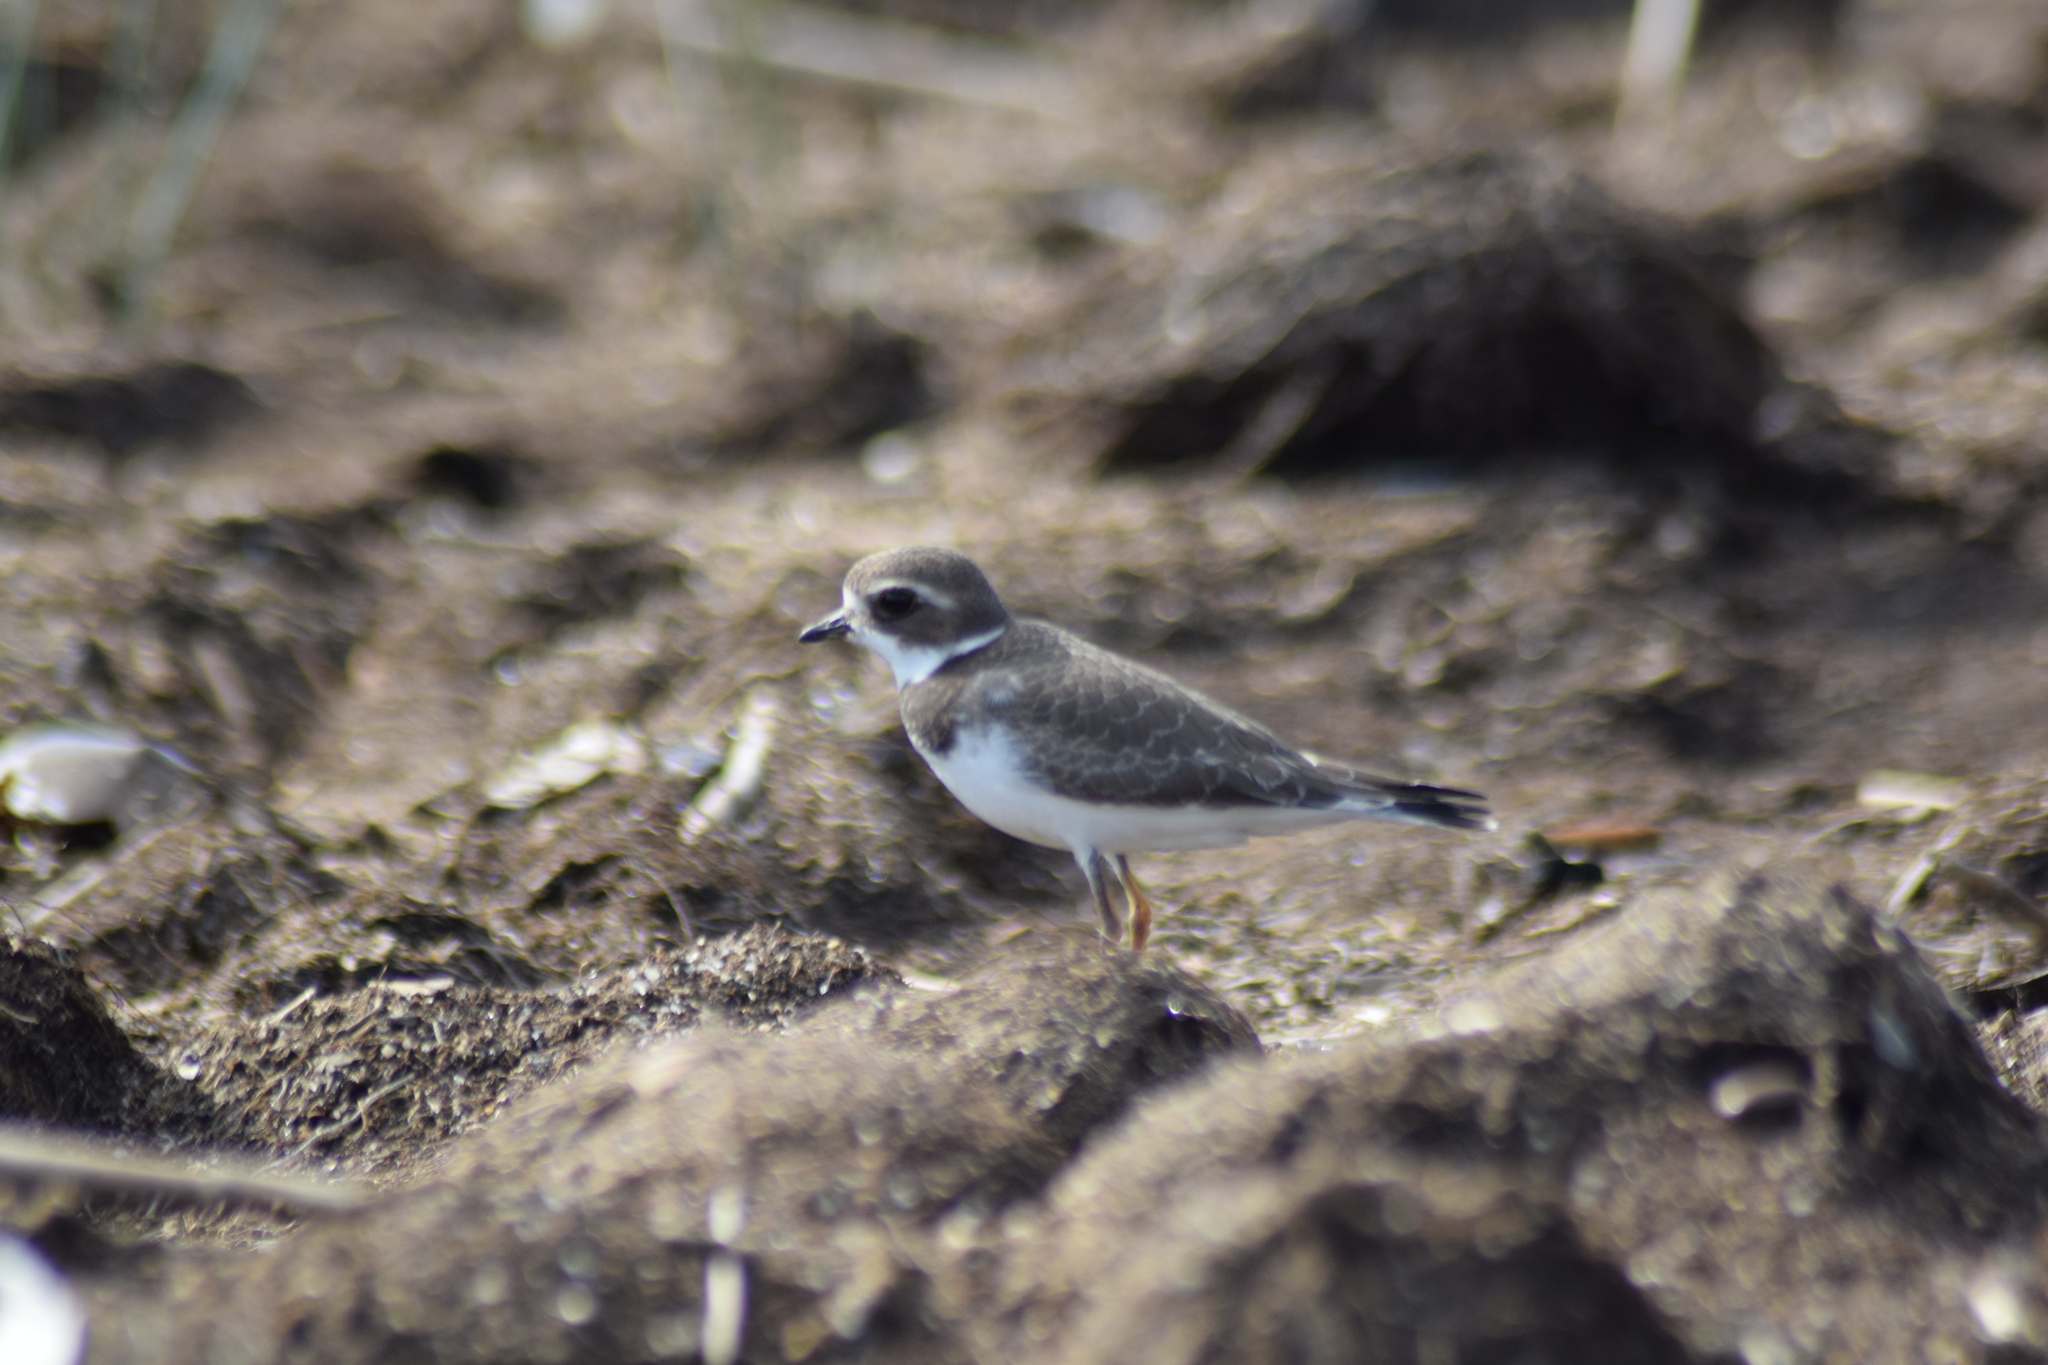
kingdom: Animalia
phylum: Chordata
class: Aves
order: Charadriiformes
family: Charadriidae
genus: Charadrius
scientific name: Charadrius semipalmatus
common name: Semipalmated plover
